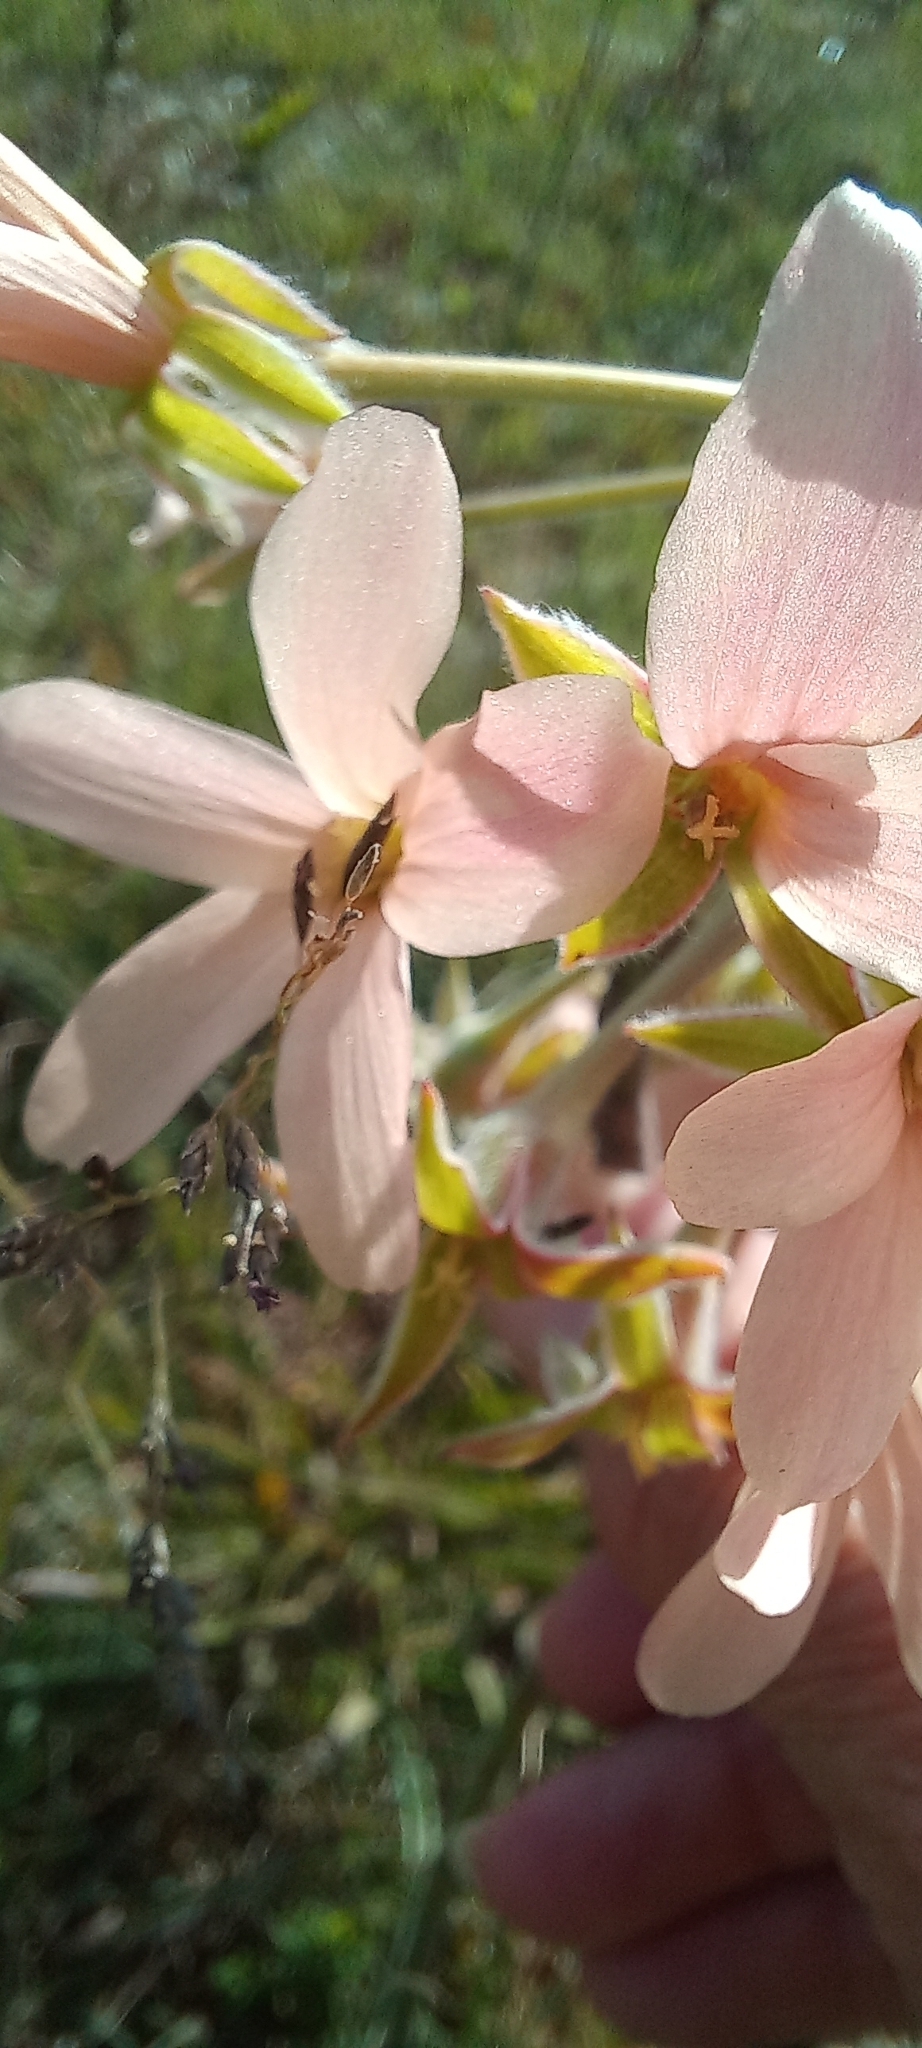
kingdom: Plantae
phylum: Tracheophyta
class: Magnoliopsida
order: Geraniales
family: Geraniaceae
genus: Pelargonium
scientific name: Pelargonium luridum
